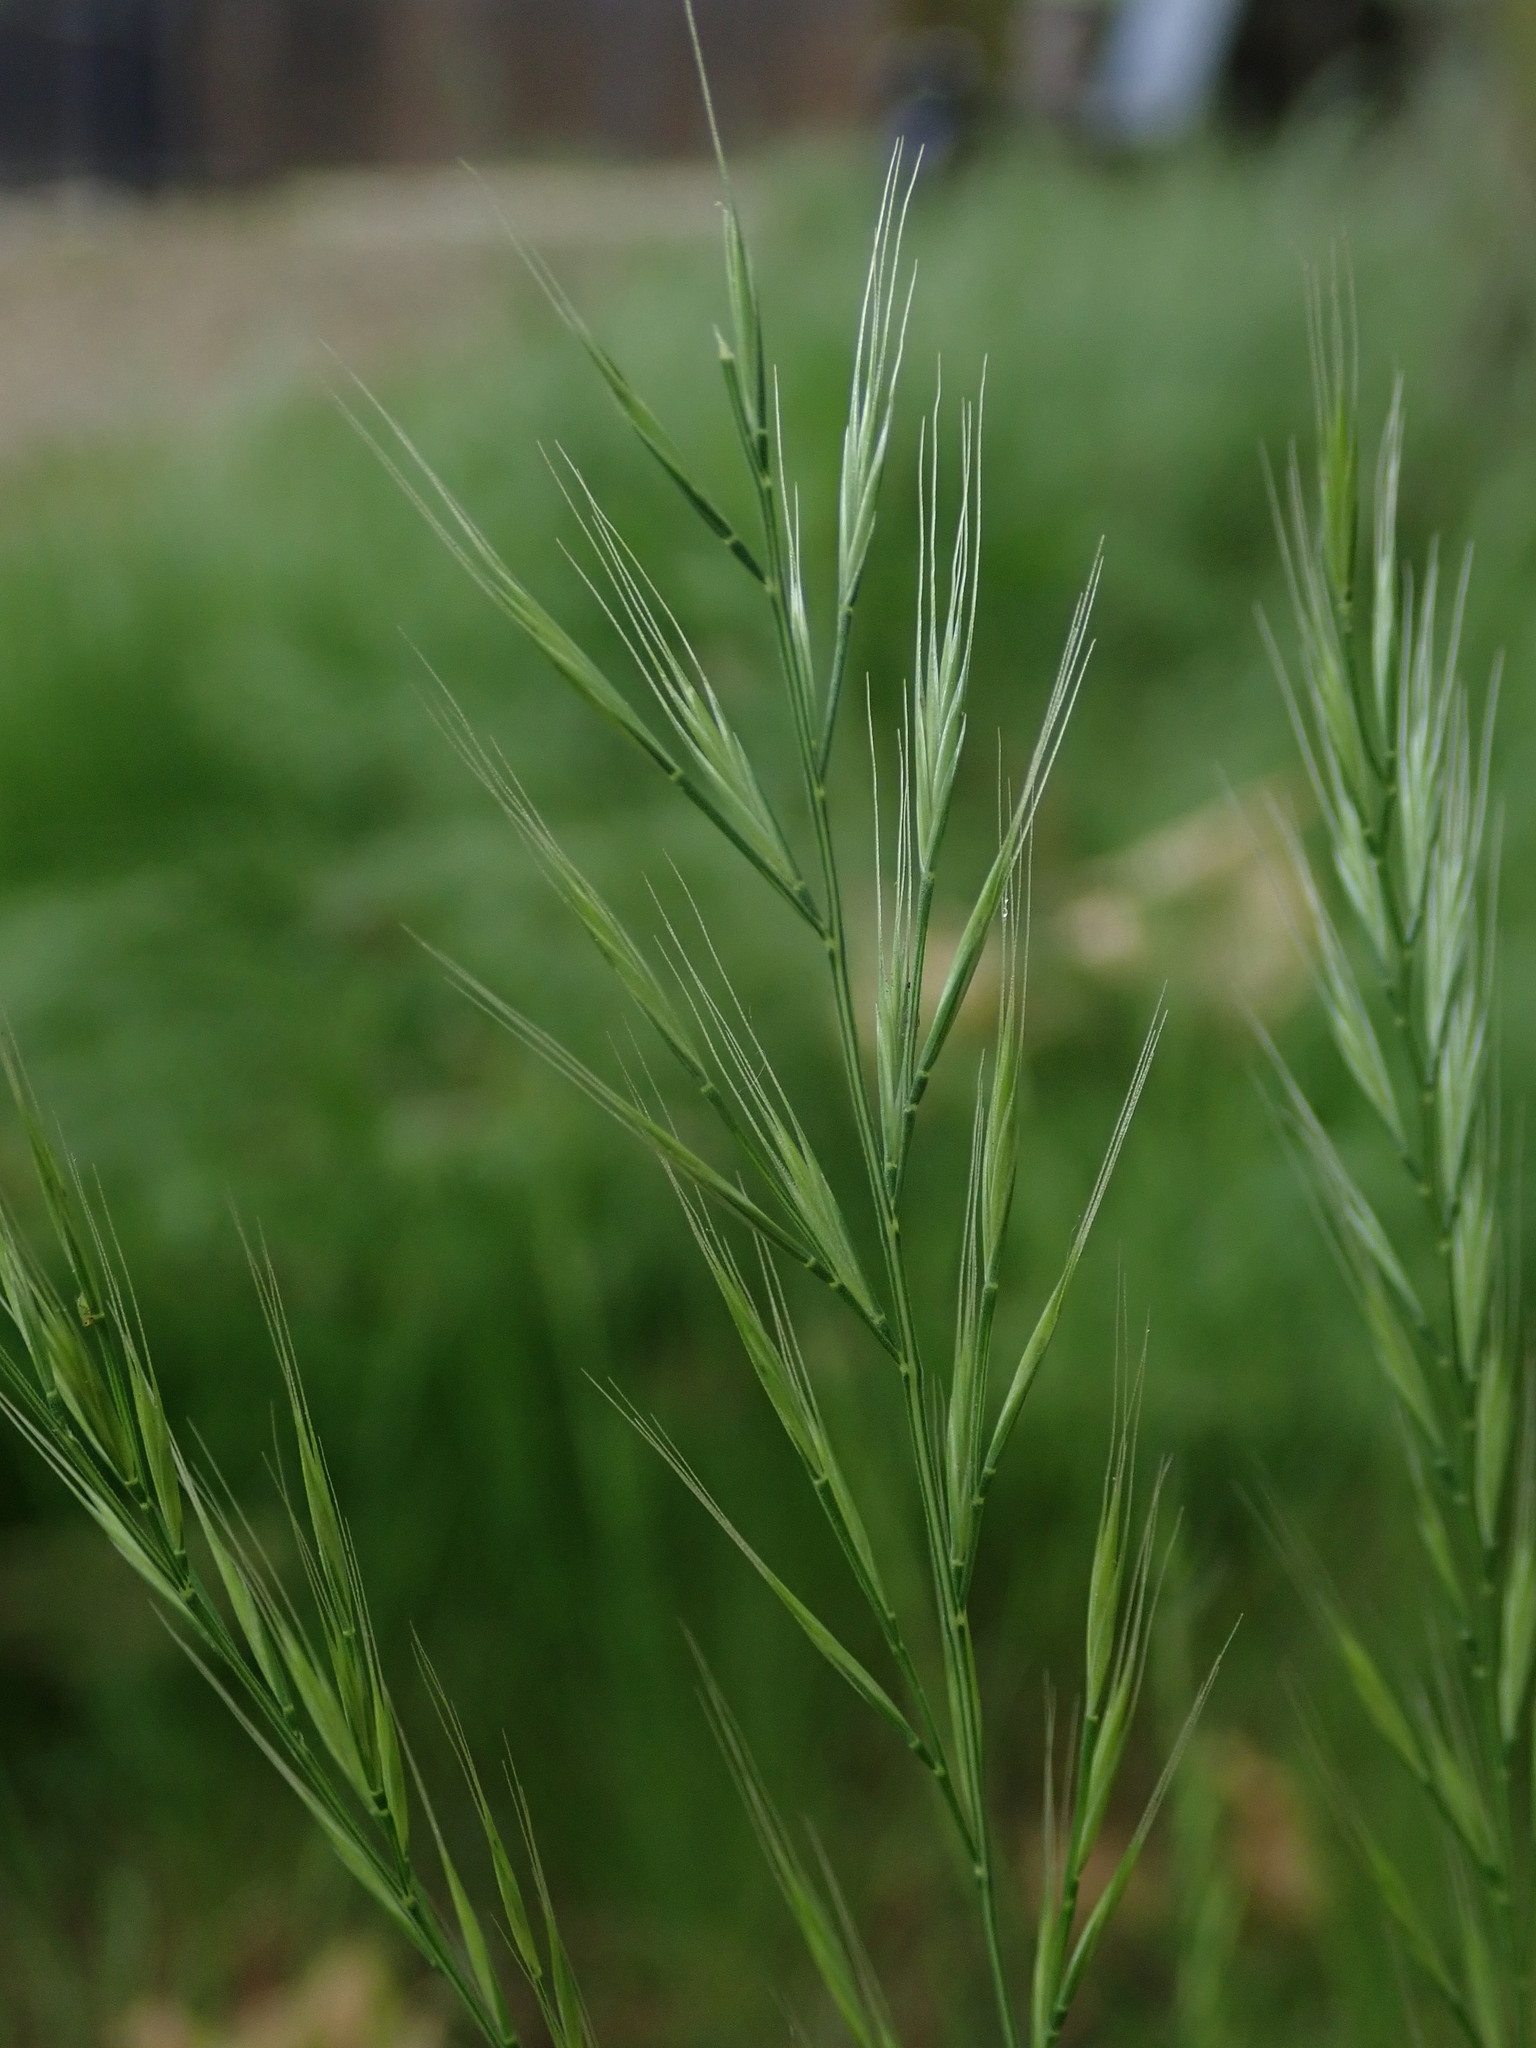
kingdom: Plantae
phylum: Tracheophyta
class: Liliopsida
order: Poales
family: Poaceae
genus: Festuca
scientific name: Festuca myuros
